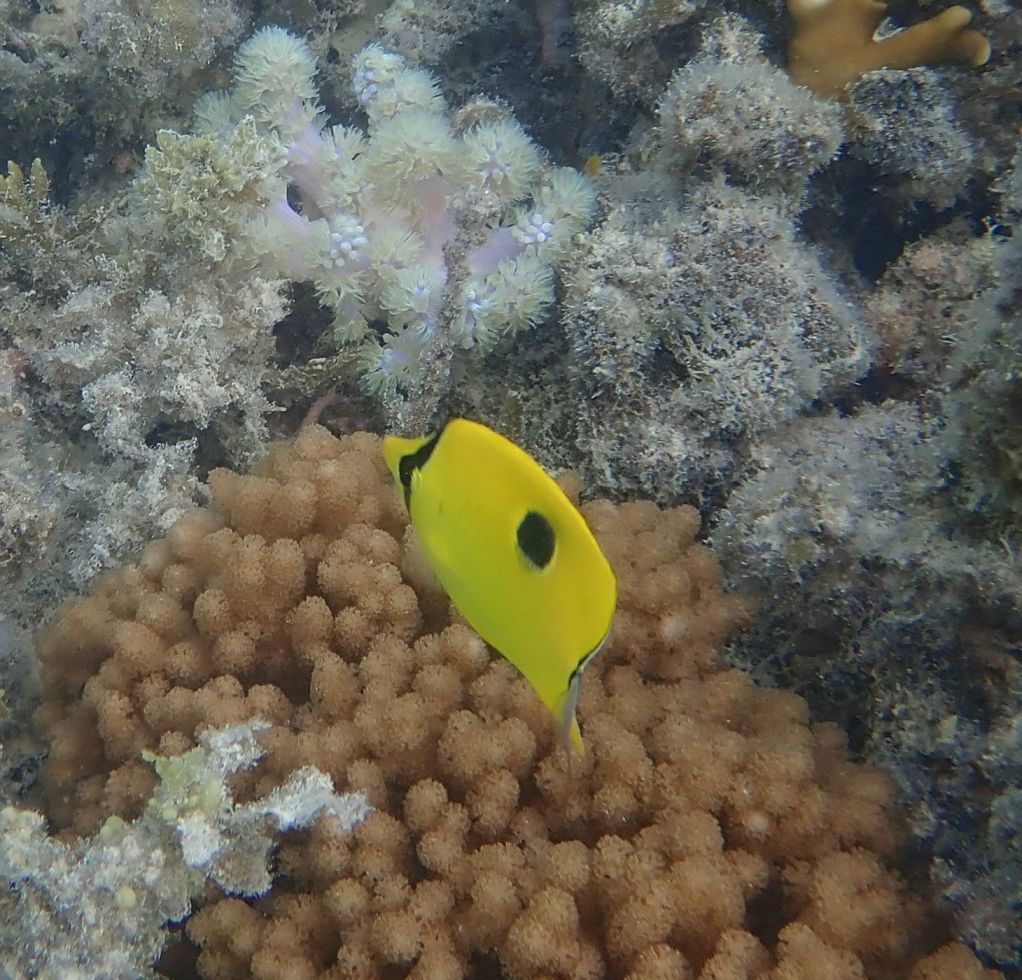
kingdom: Animalia
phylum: Chordata
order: Perciformes
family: Chaetodontidae
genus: Chaetodon
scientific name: Chaetodon interruptus
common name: Yellow teardrop butterflyfish
